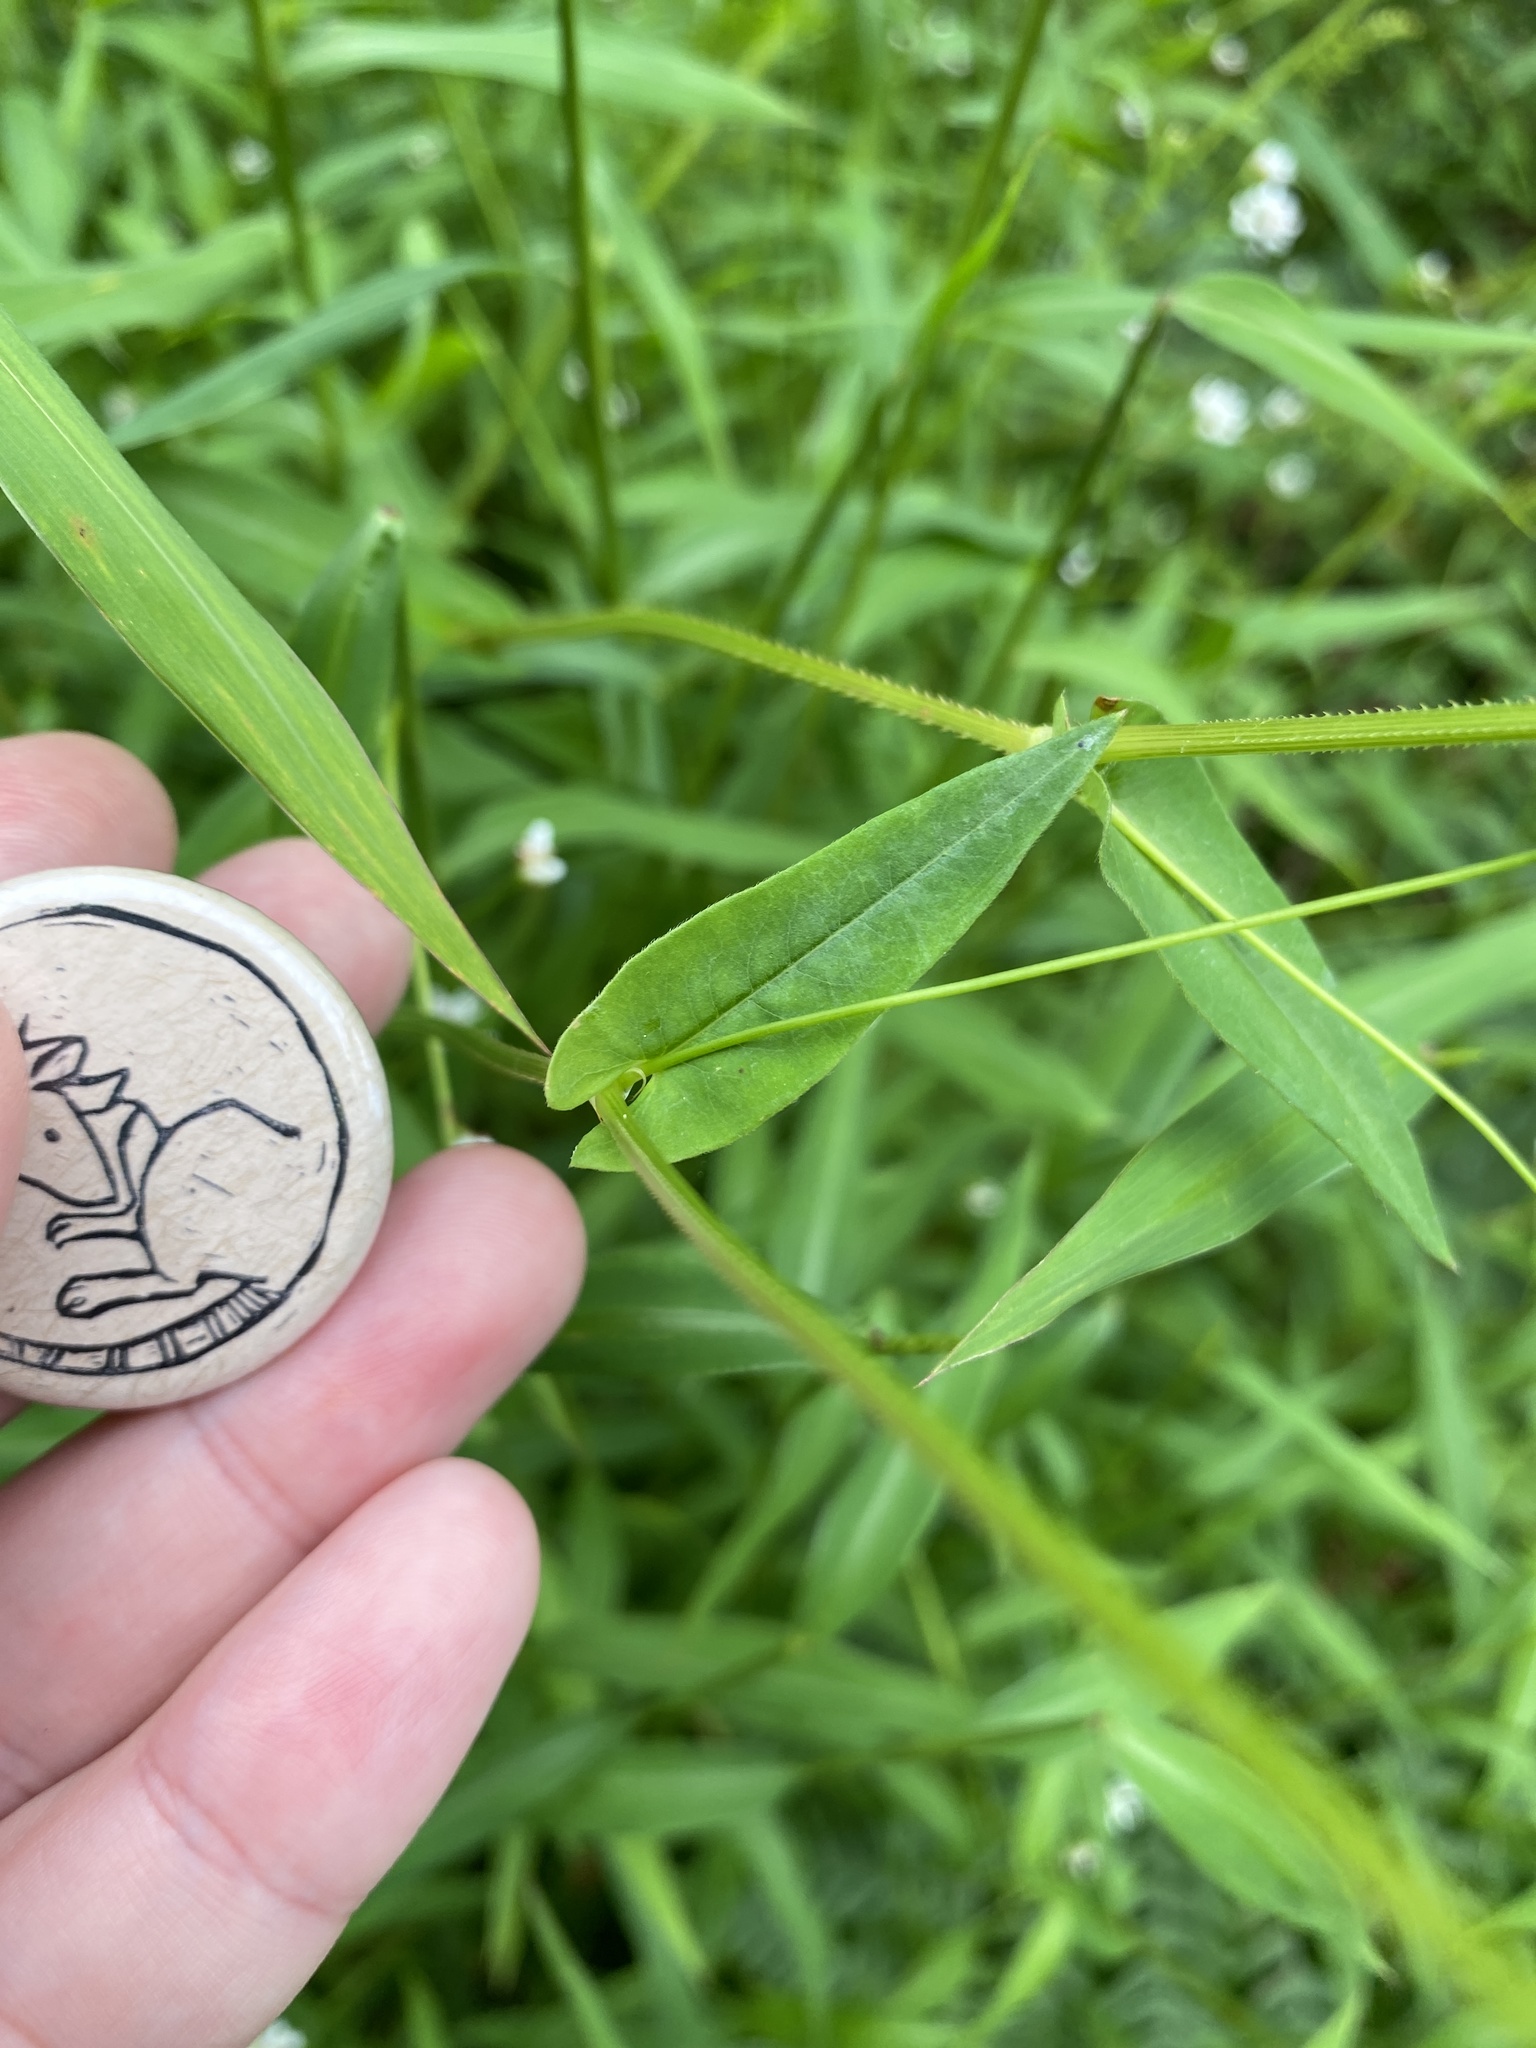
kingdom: Plantae
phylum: Tracheophyta
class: Magnoliopsida
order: Caryophyllales
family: Polygonaceae
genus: Persicaria
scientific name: Persicaria sagittata
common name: American tearthumb
